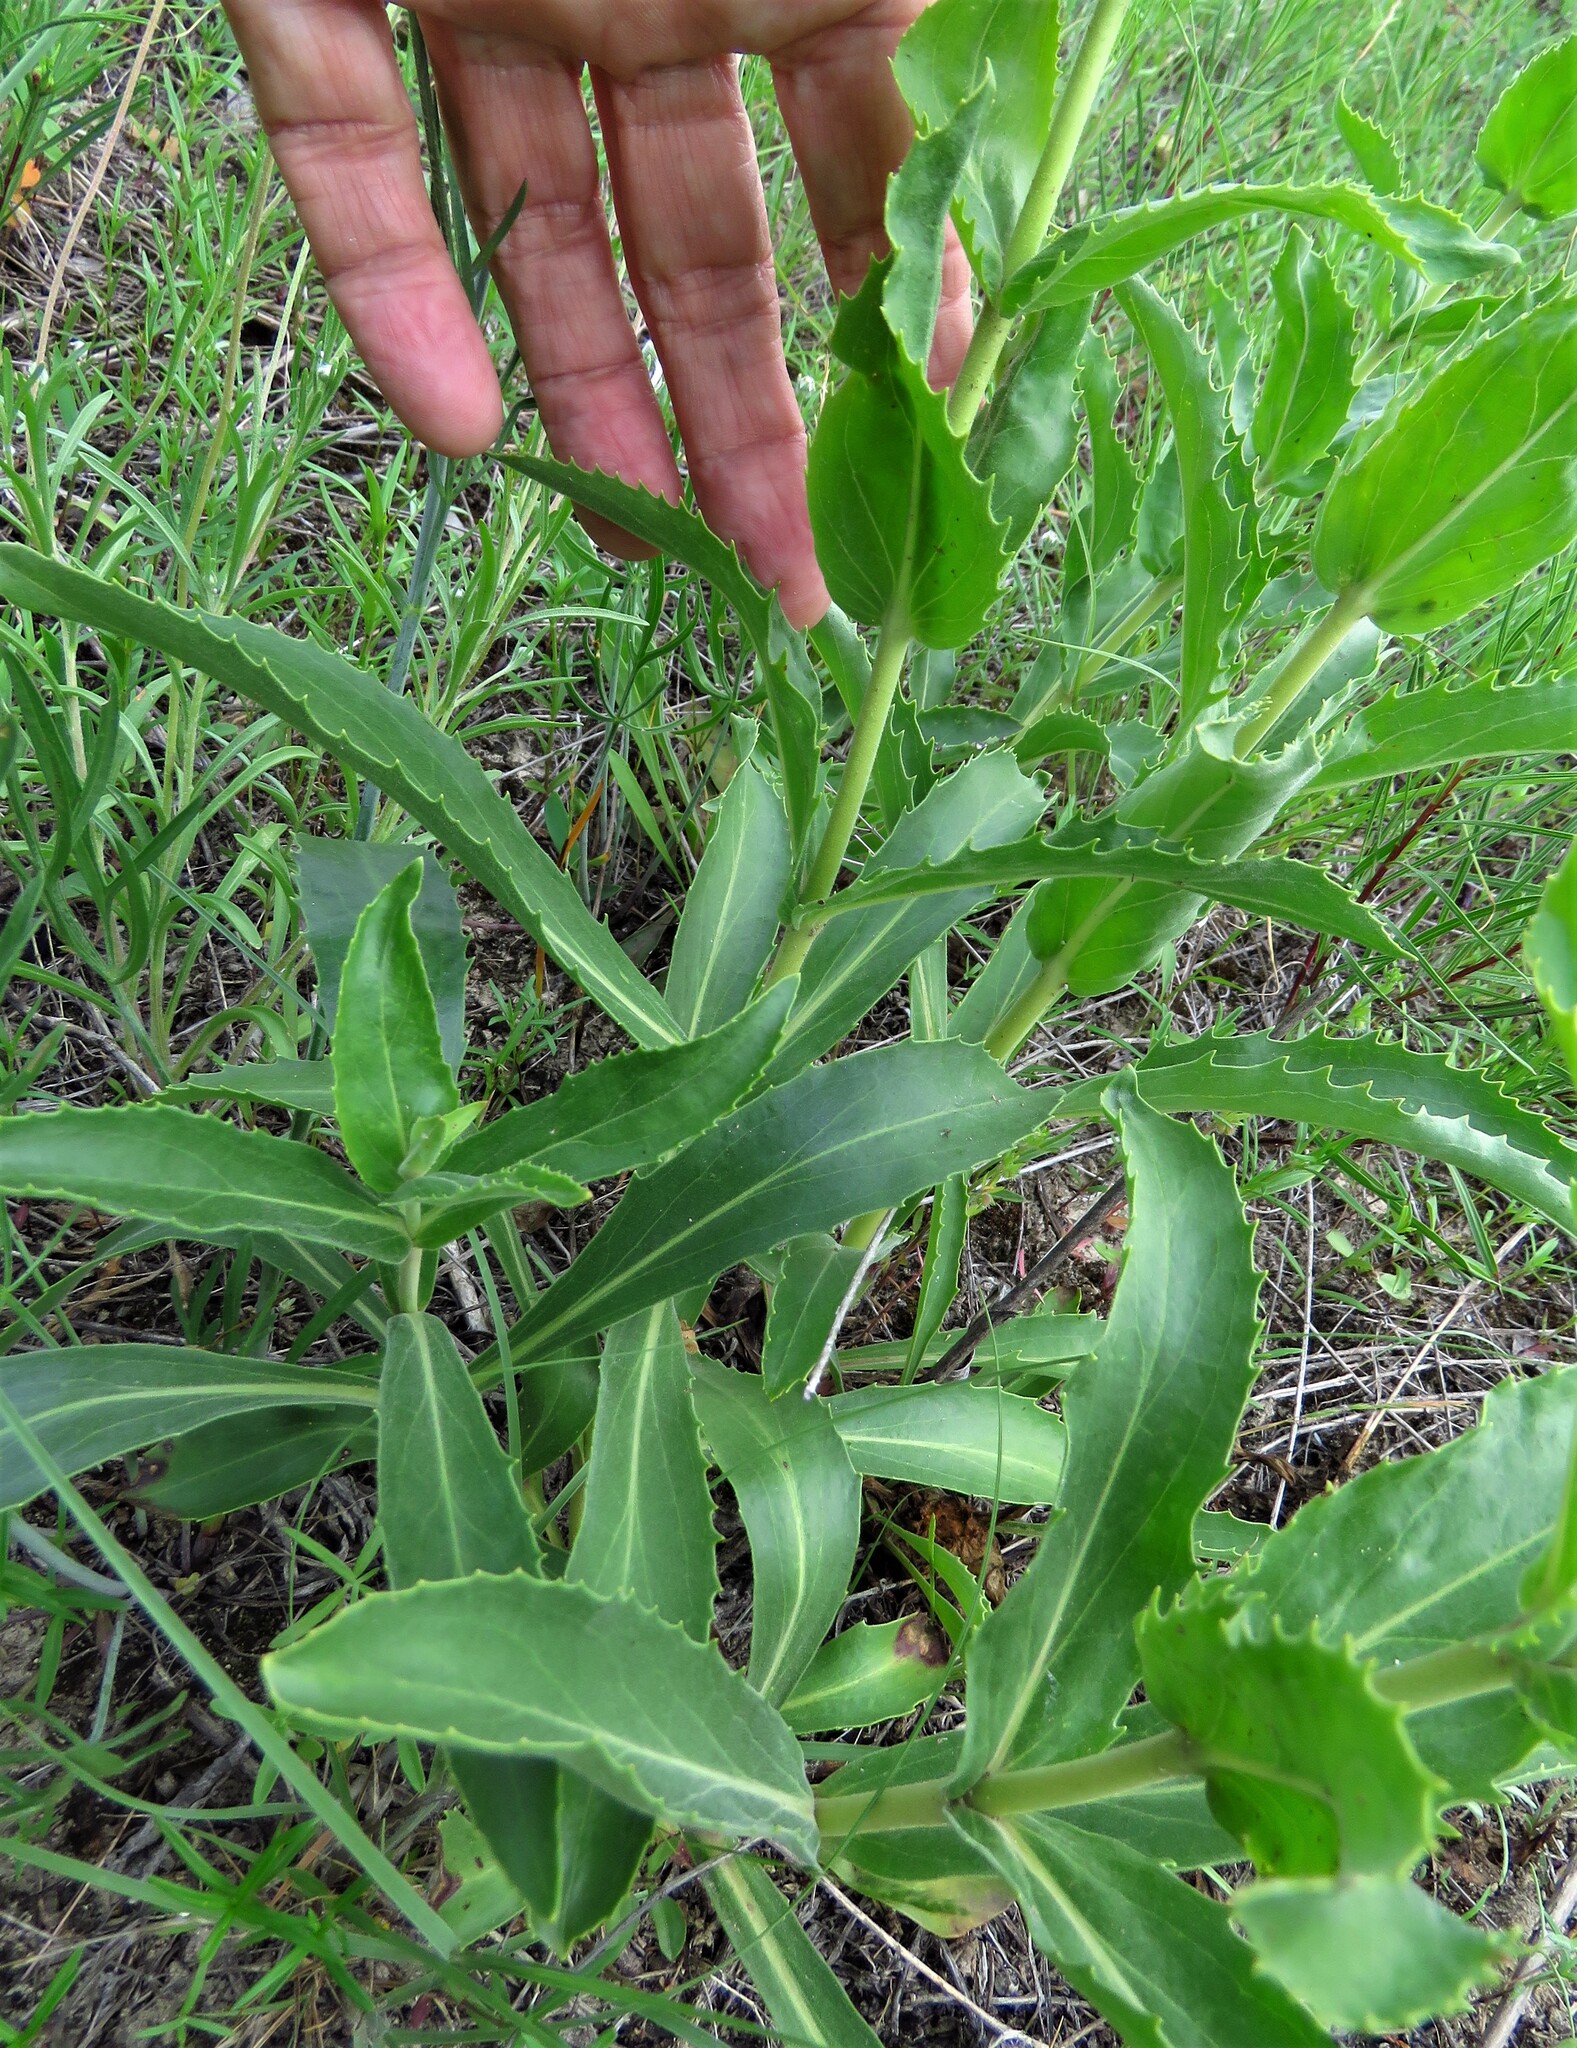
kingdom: Plantae
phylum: Tracheophyta
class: Magnoliopsida
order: Lamiales
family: Plantaginaceae
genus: Penstemon
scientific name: Penstemon cobaea
